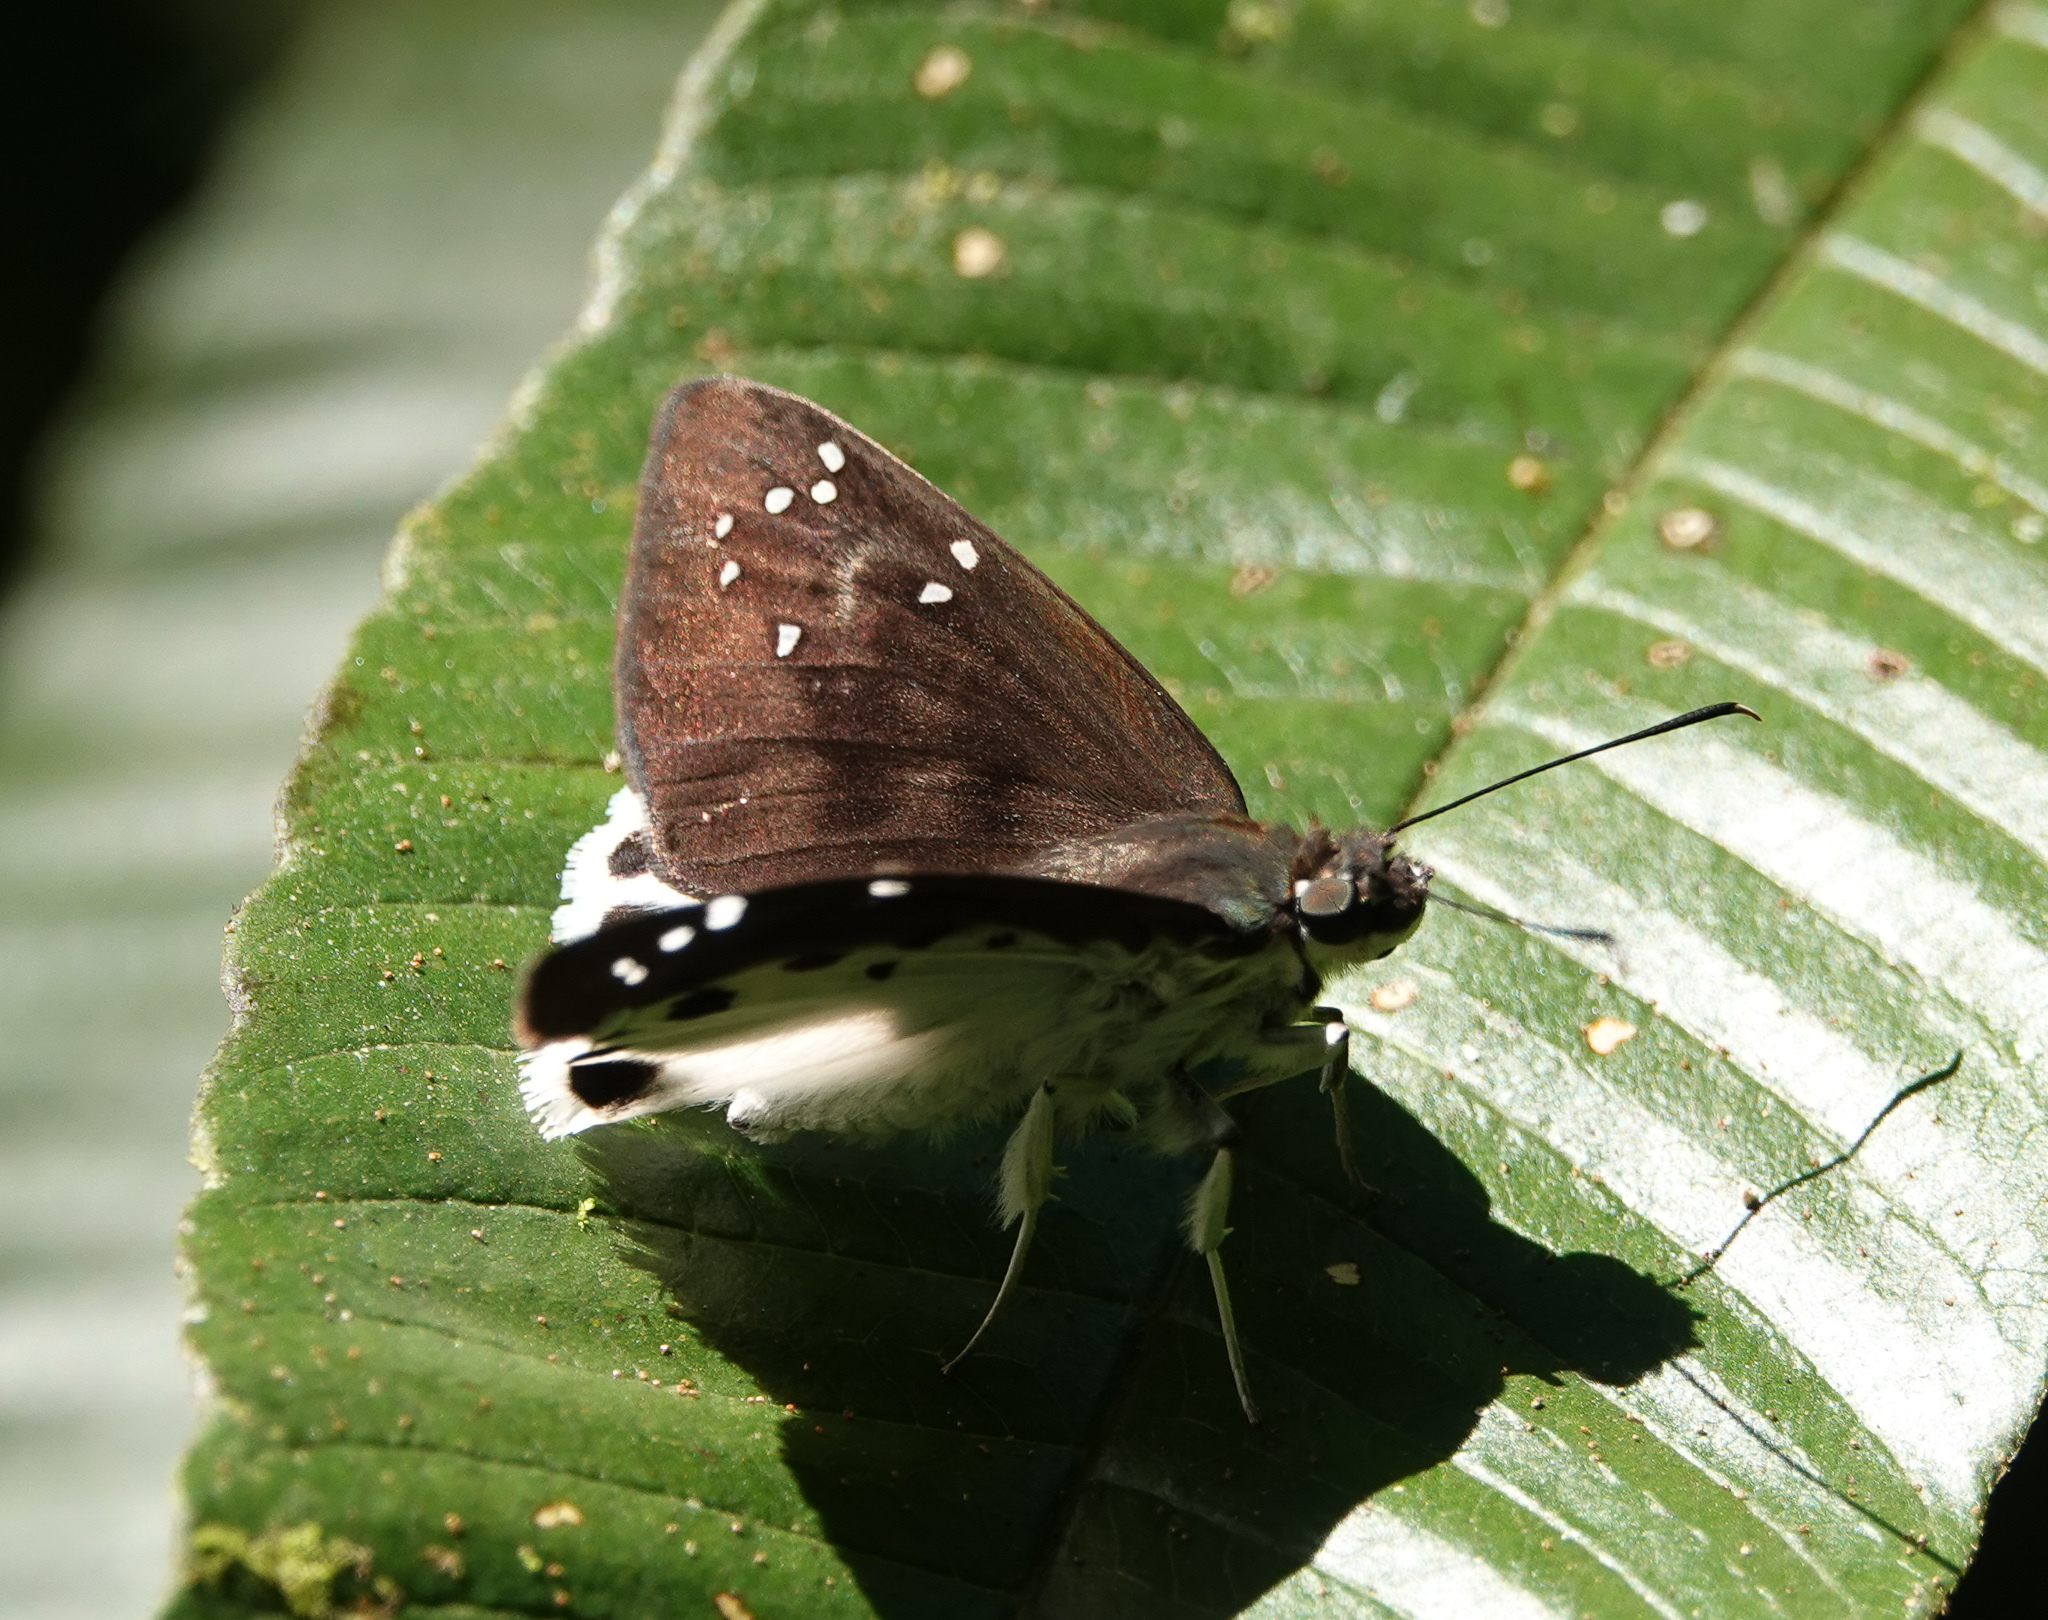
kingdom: Animalia
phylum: Arthropoda
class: Insecta
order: Lepidoptera
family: Hesperiidae
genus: Tagiades
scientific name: Tagiades litigiosa
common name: Water snow flat
